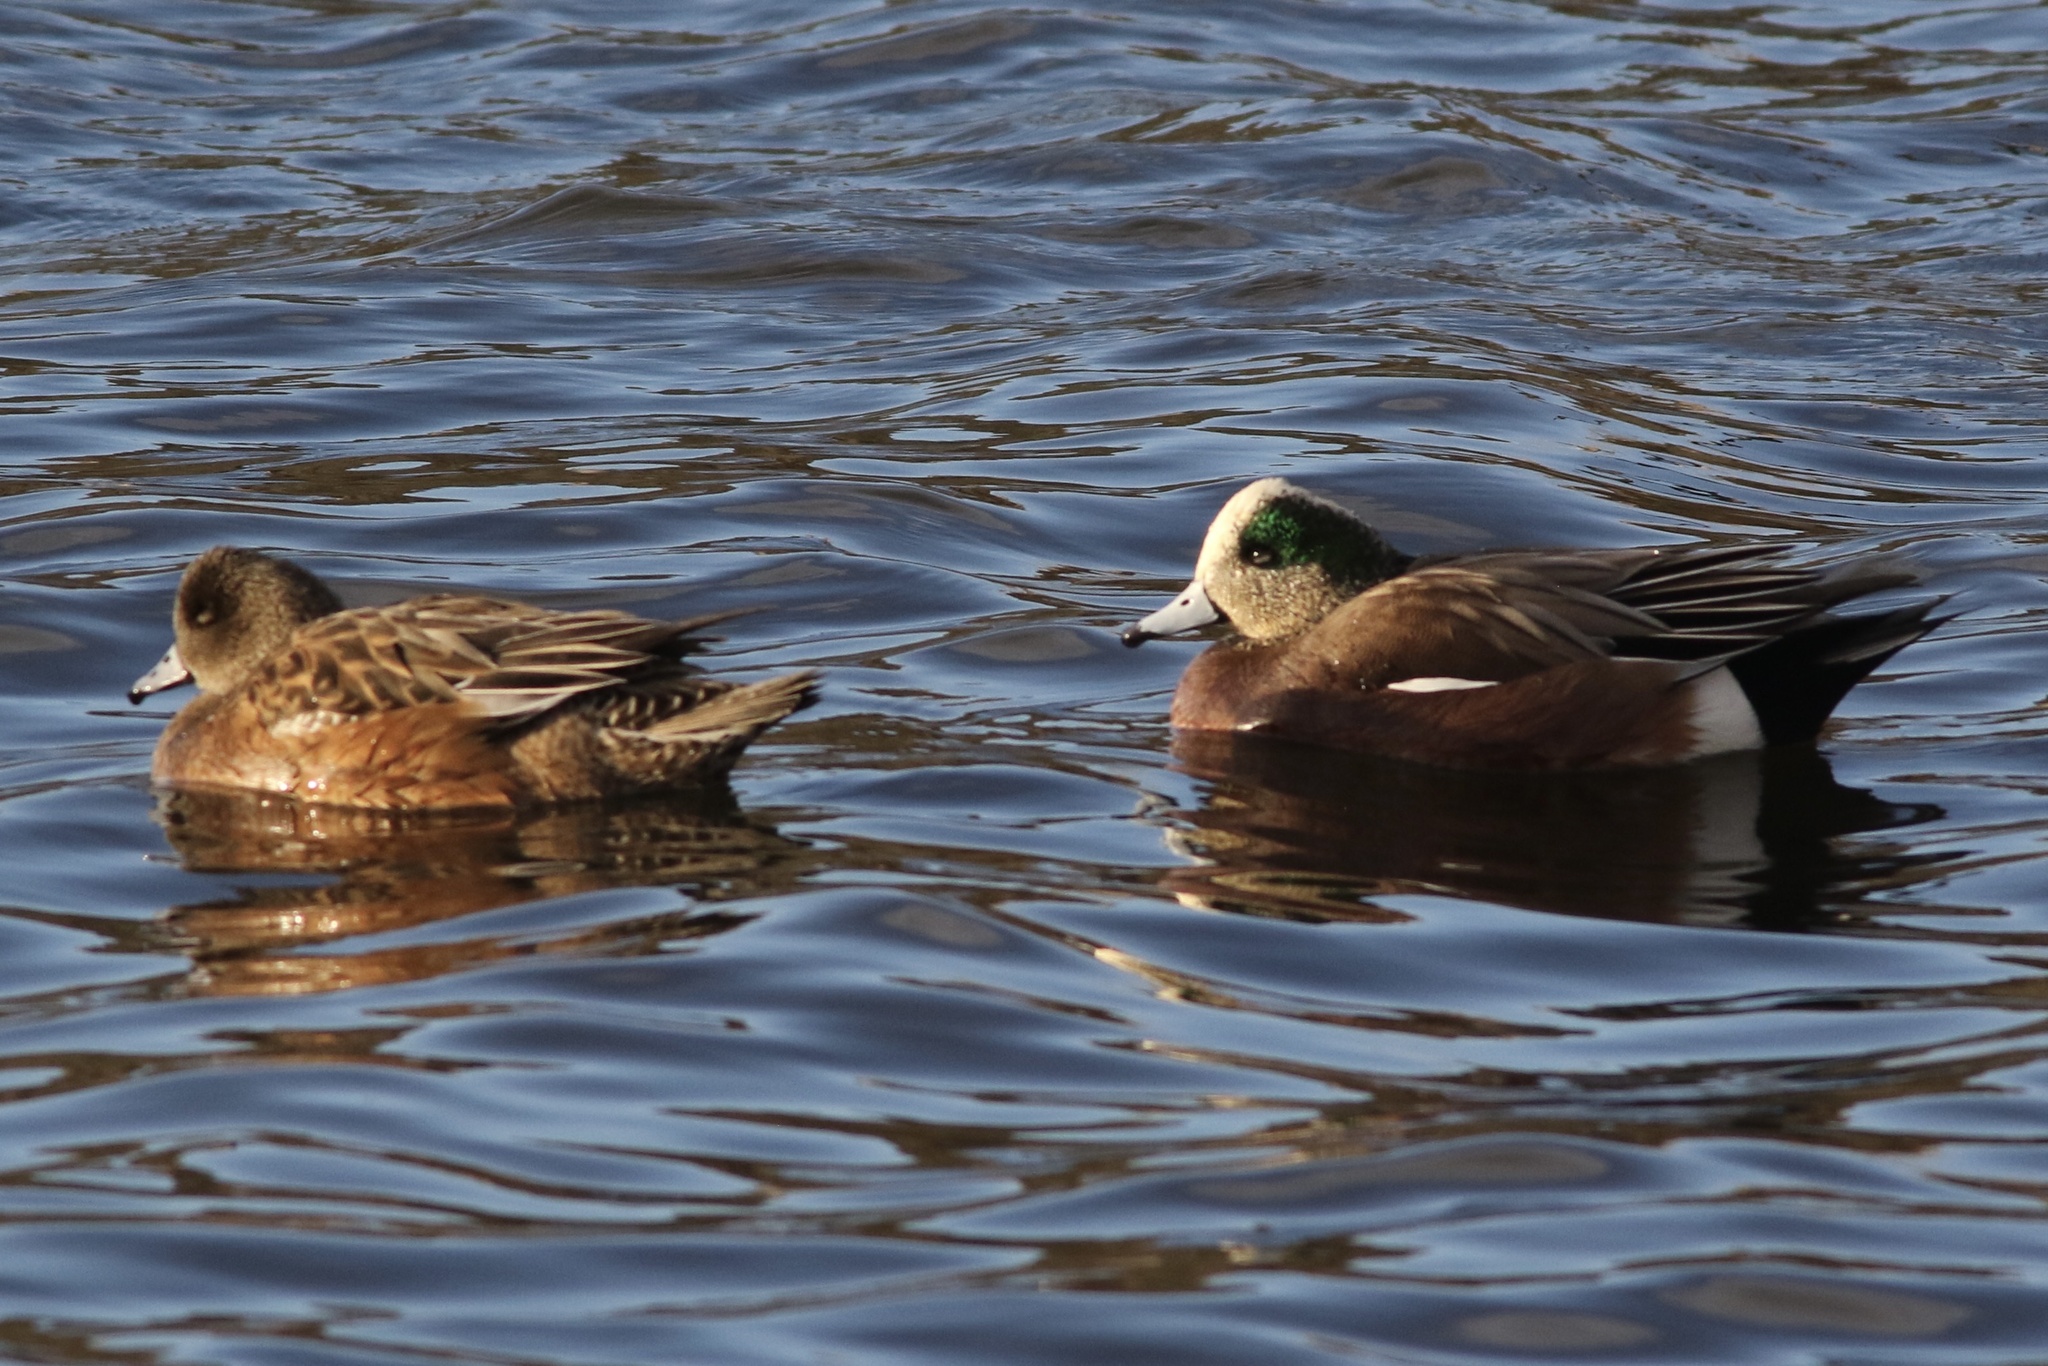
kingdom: Animalia
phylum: Chordata
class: Aves
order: Anseriformes
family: Anatidae
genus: Mareca
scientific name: Mareca americana
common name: American wigeon
